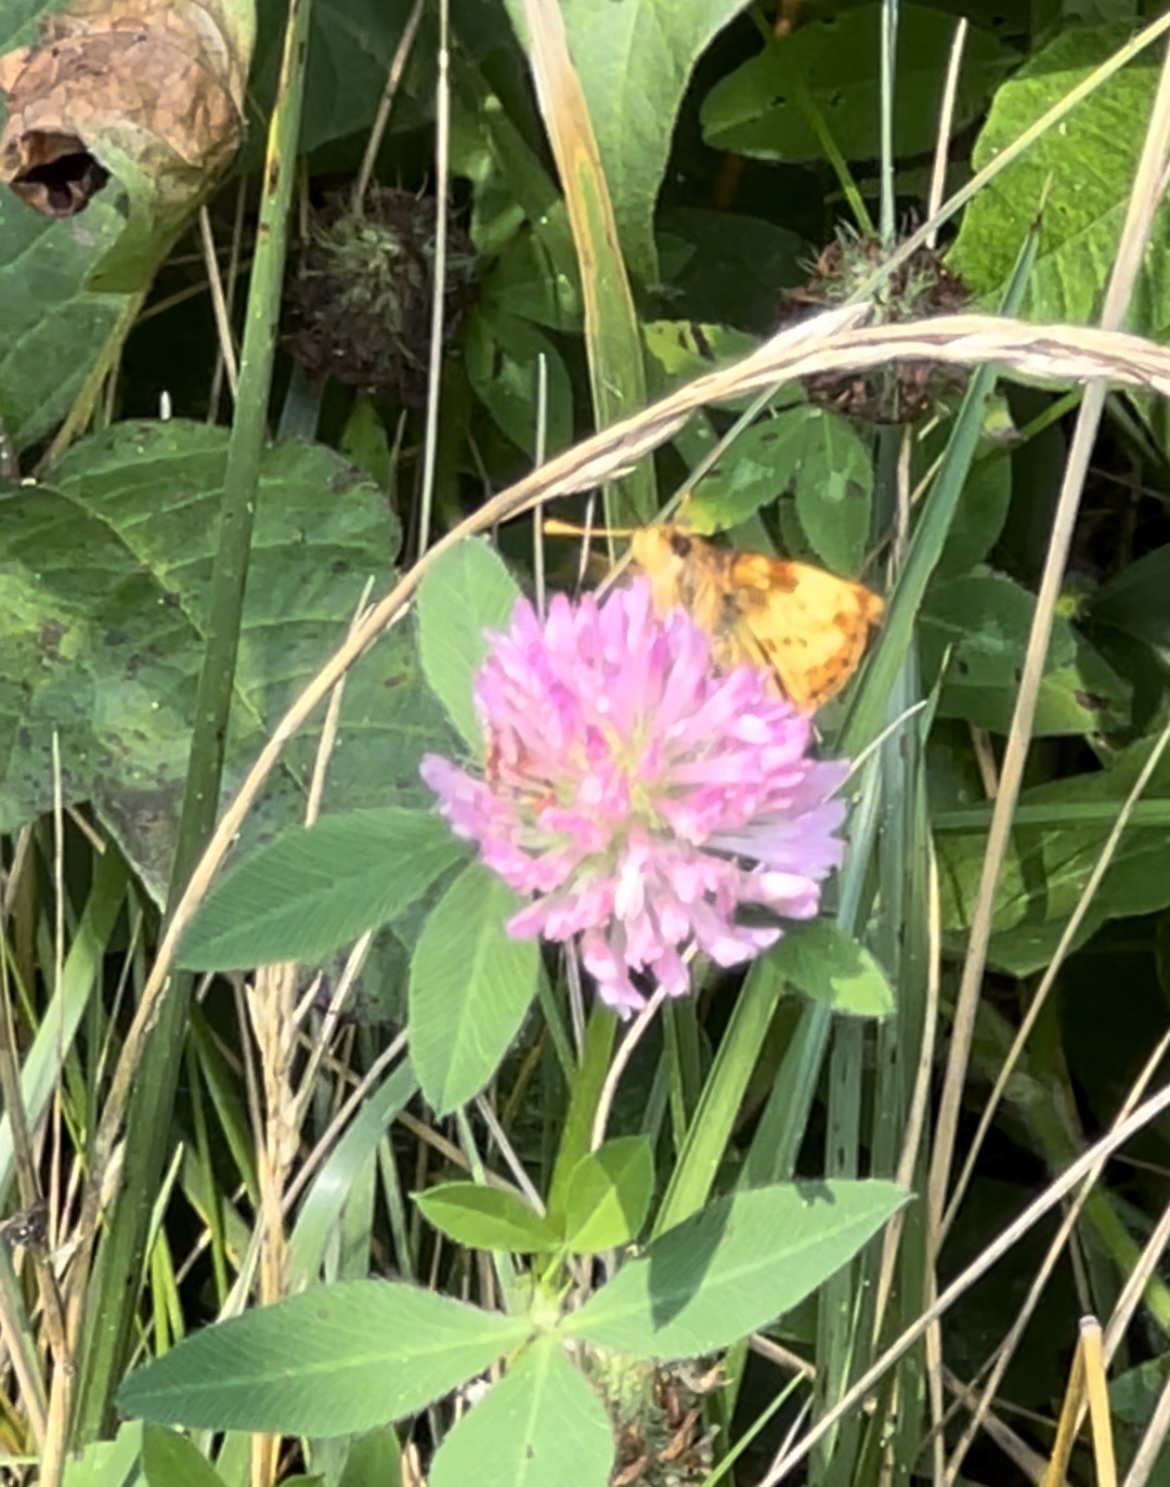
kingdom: Animalia
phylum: Arthropoda
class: Insecta
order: Lepidoptera
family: Hesperiidae
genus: Lon
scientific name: Lon zabulon
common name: Zabulon skipper
